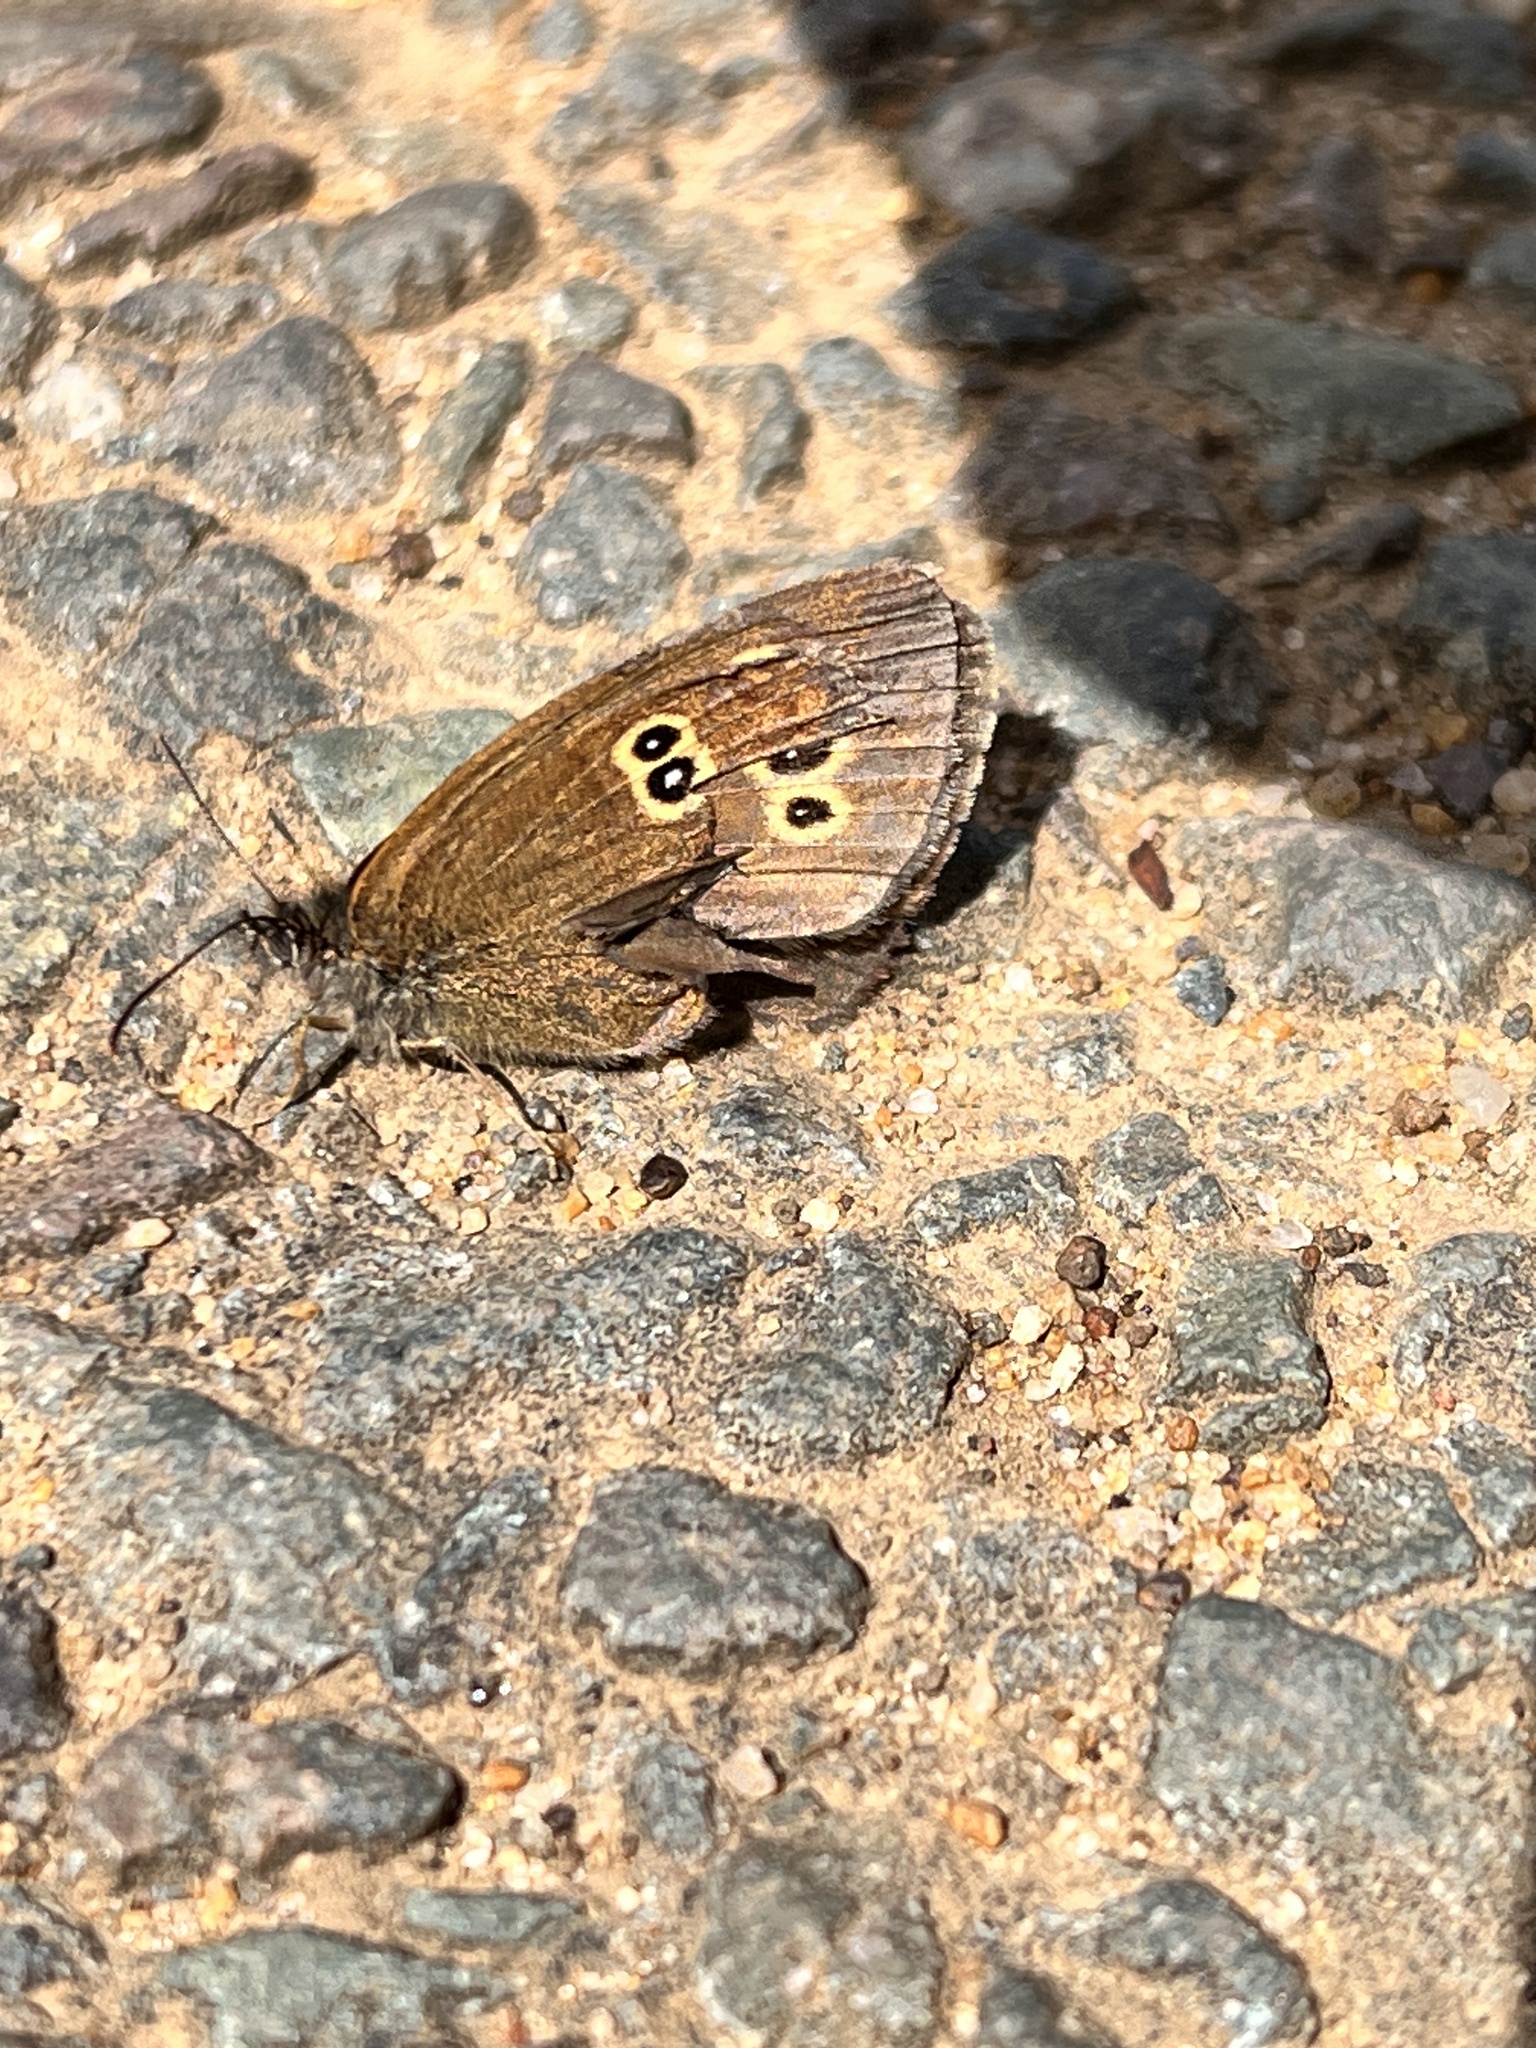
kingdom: Animalia
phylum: Arthropoda
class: Insecta
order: Lepidoptera
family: Nymphalidae
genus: Aphantopus
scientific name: Aphantopus hyperantus
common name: Ringlet
